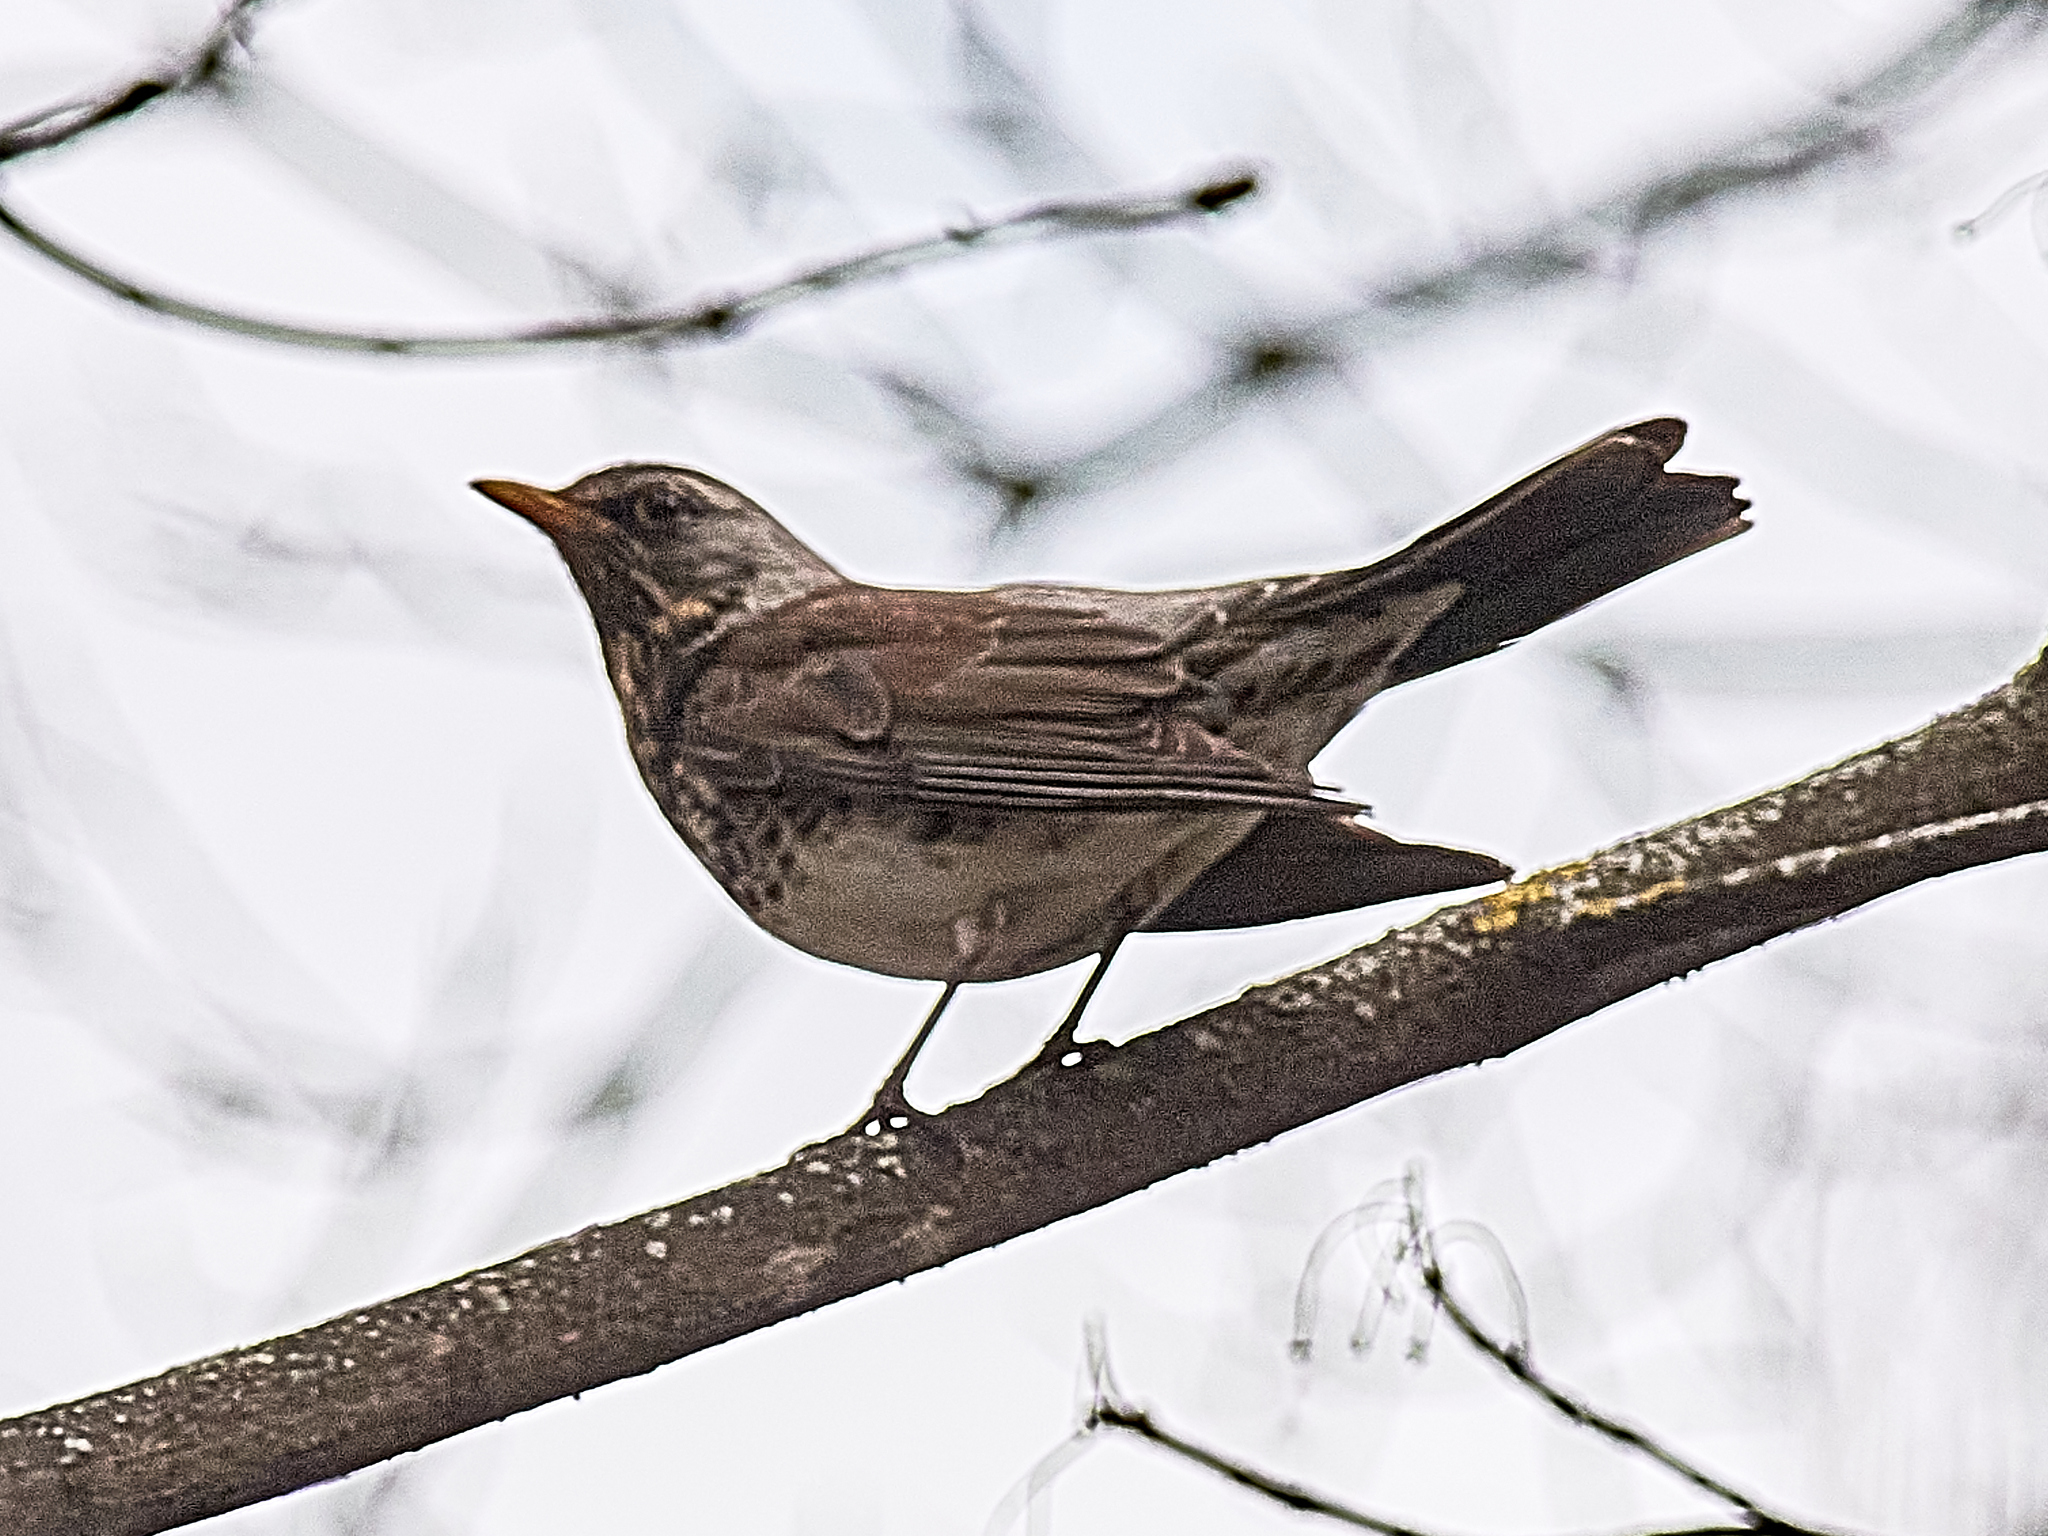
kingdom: Animalia
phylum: Chordata
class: Aves
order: Passeriformes
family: Turdidae
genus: Turdus
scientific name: Turdus pilaris
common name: Fieldfare
